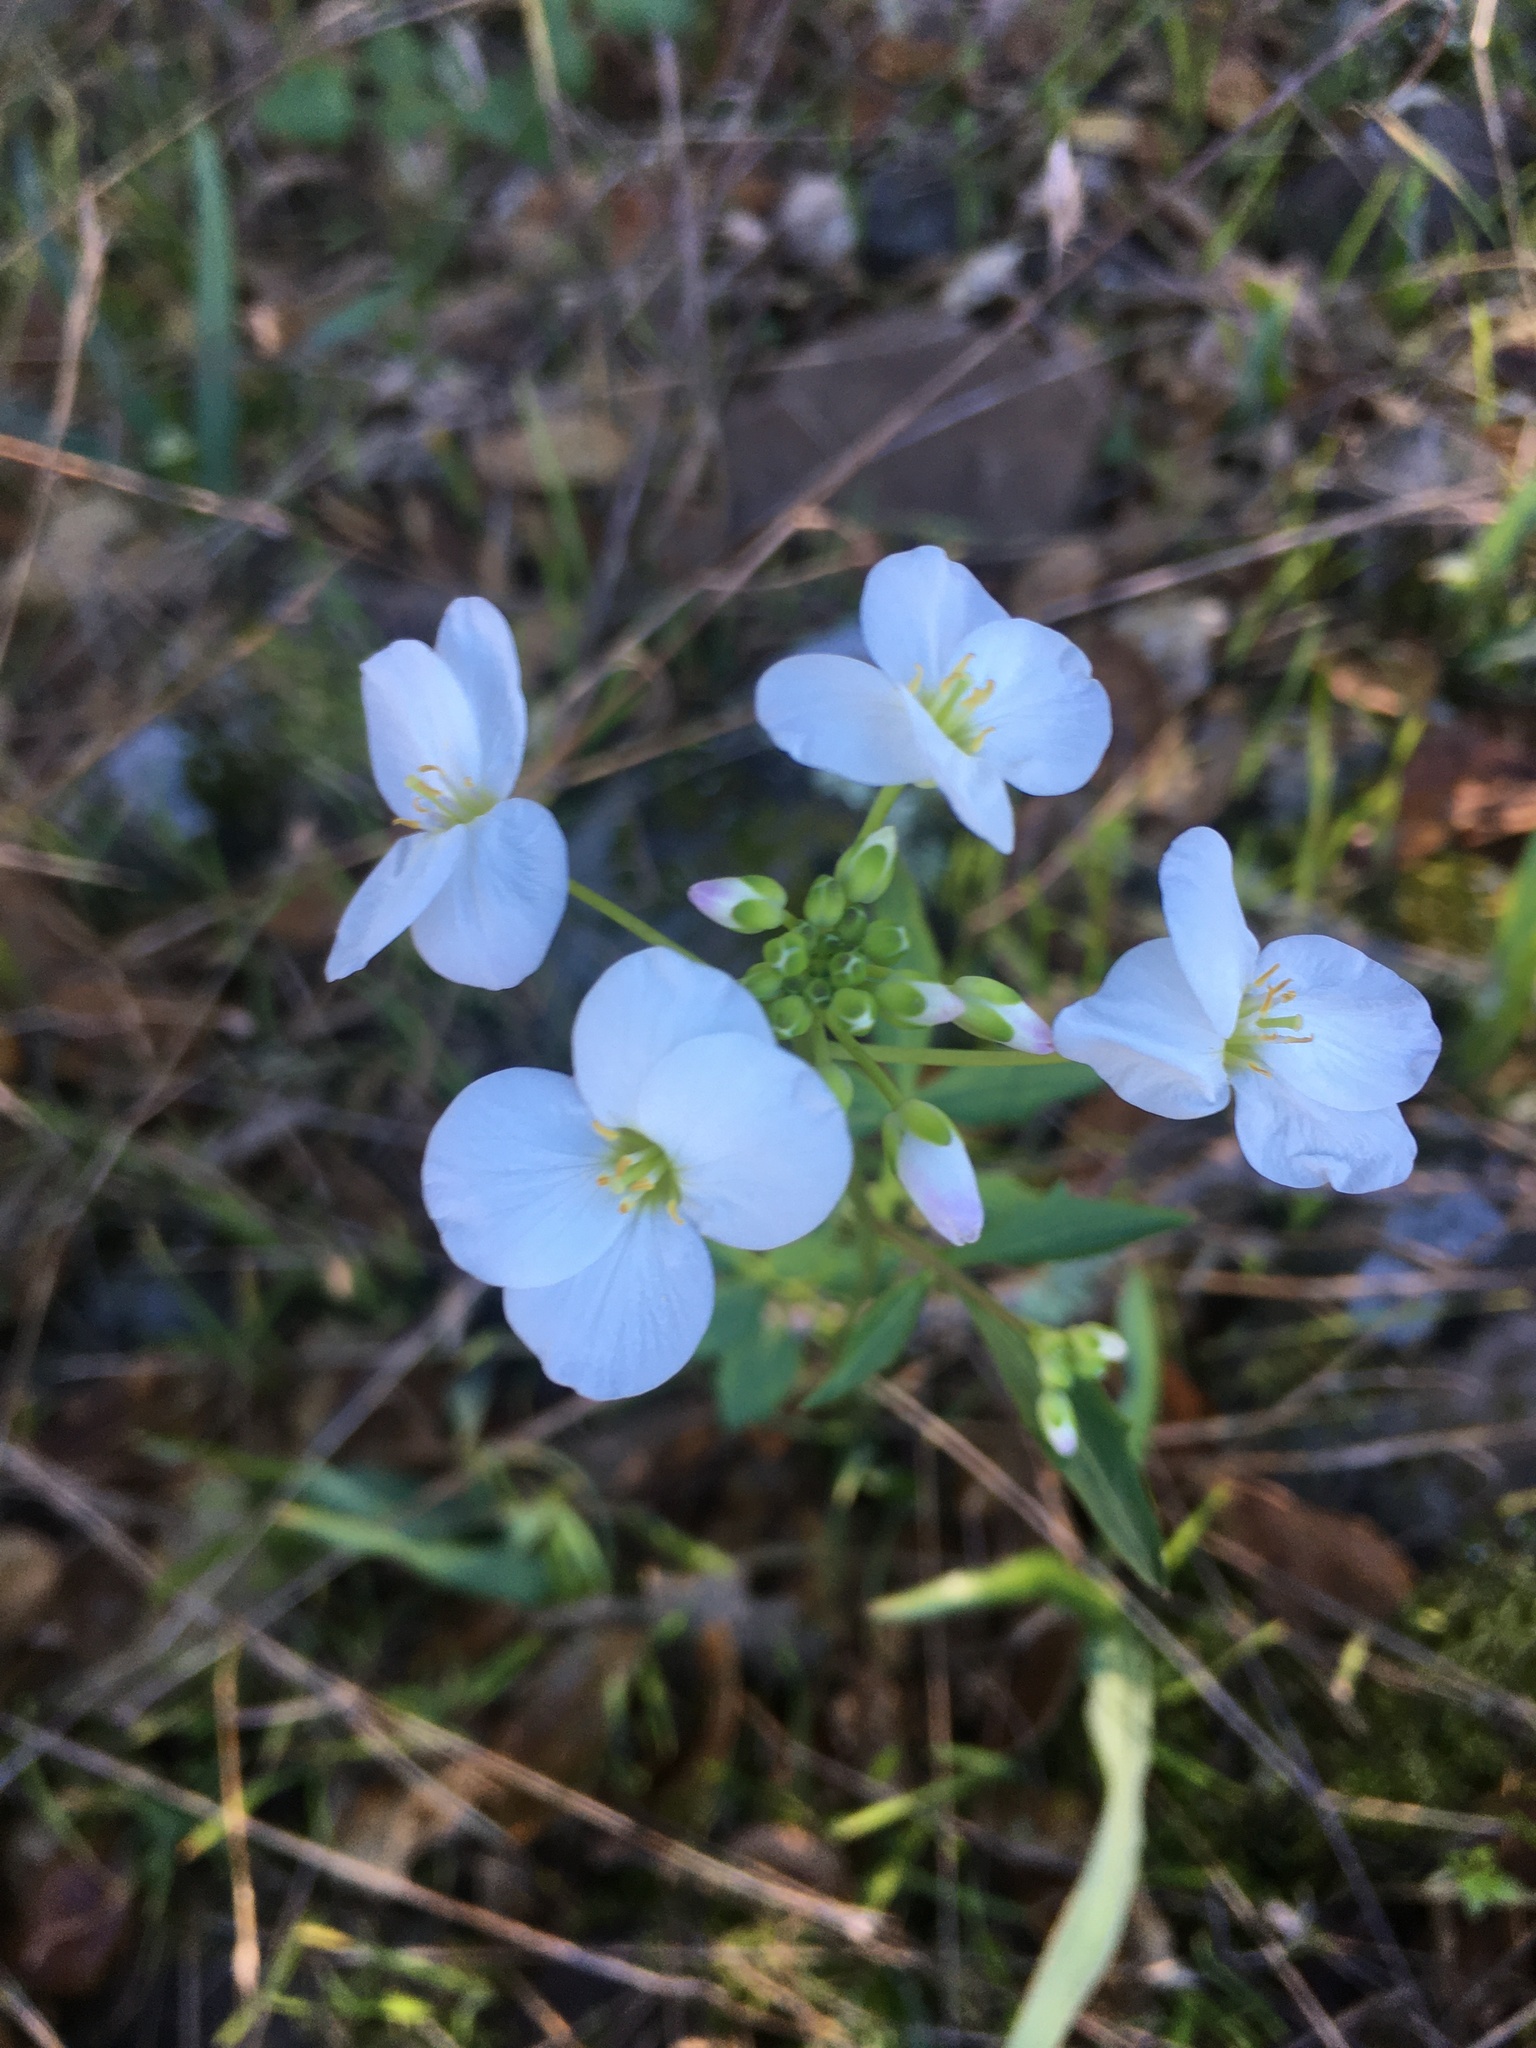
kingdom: Plantae
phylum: Tracheophyta
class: Magnoliopsida
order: Brassicales
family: Brassicaceae
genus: Cardamine
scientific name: Cardamine californica
